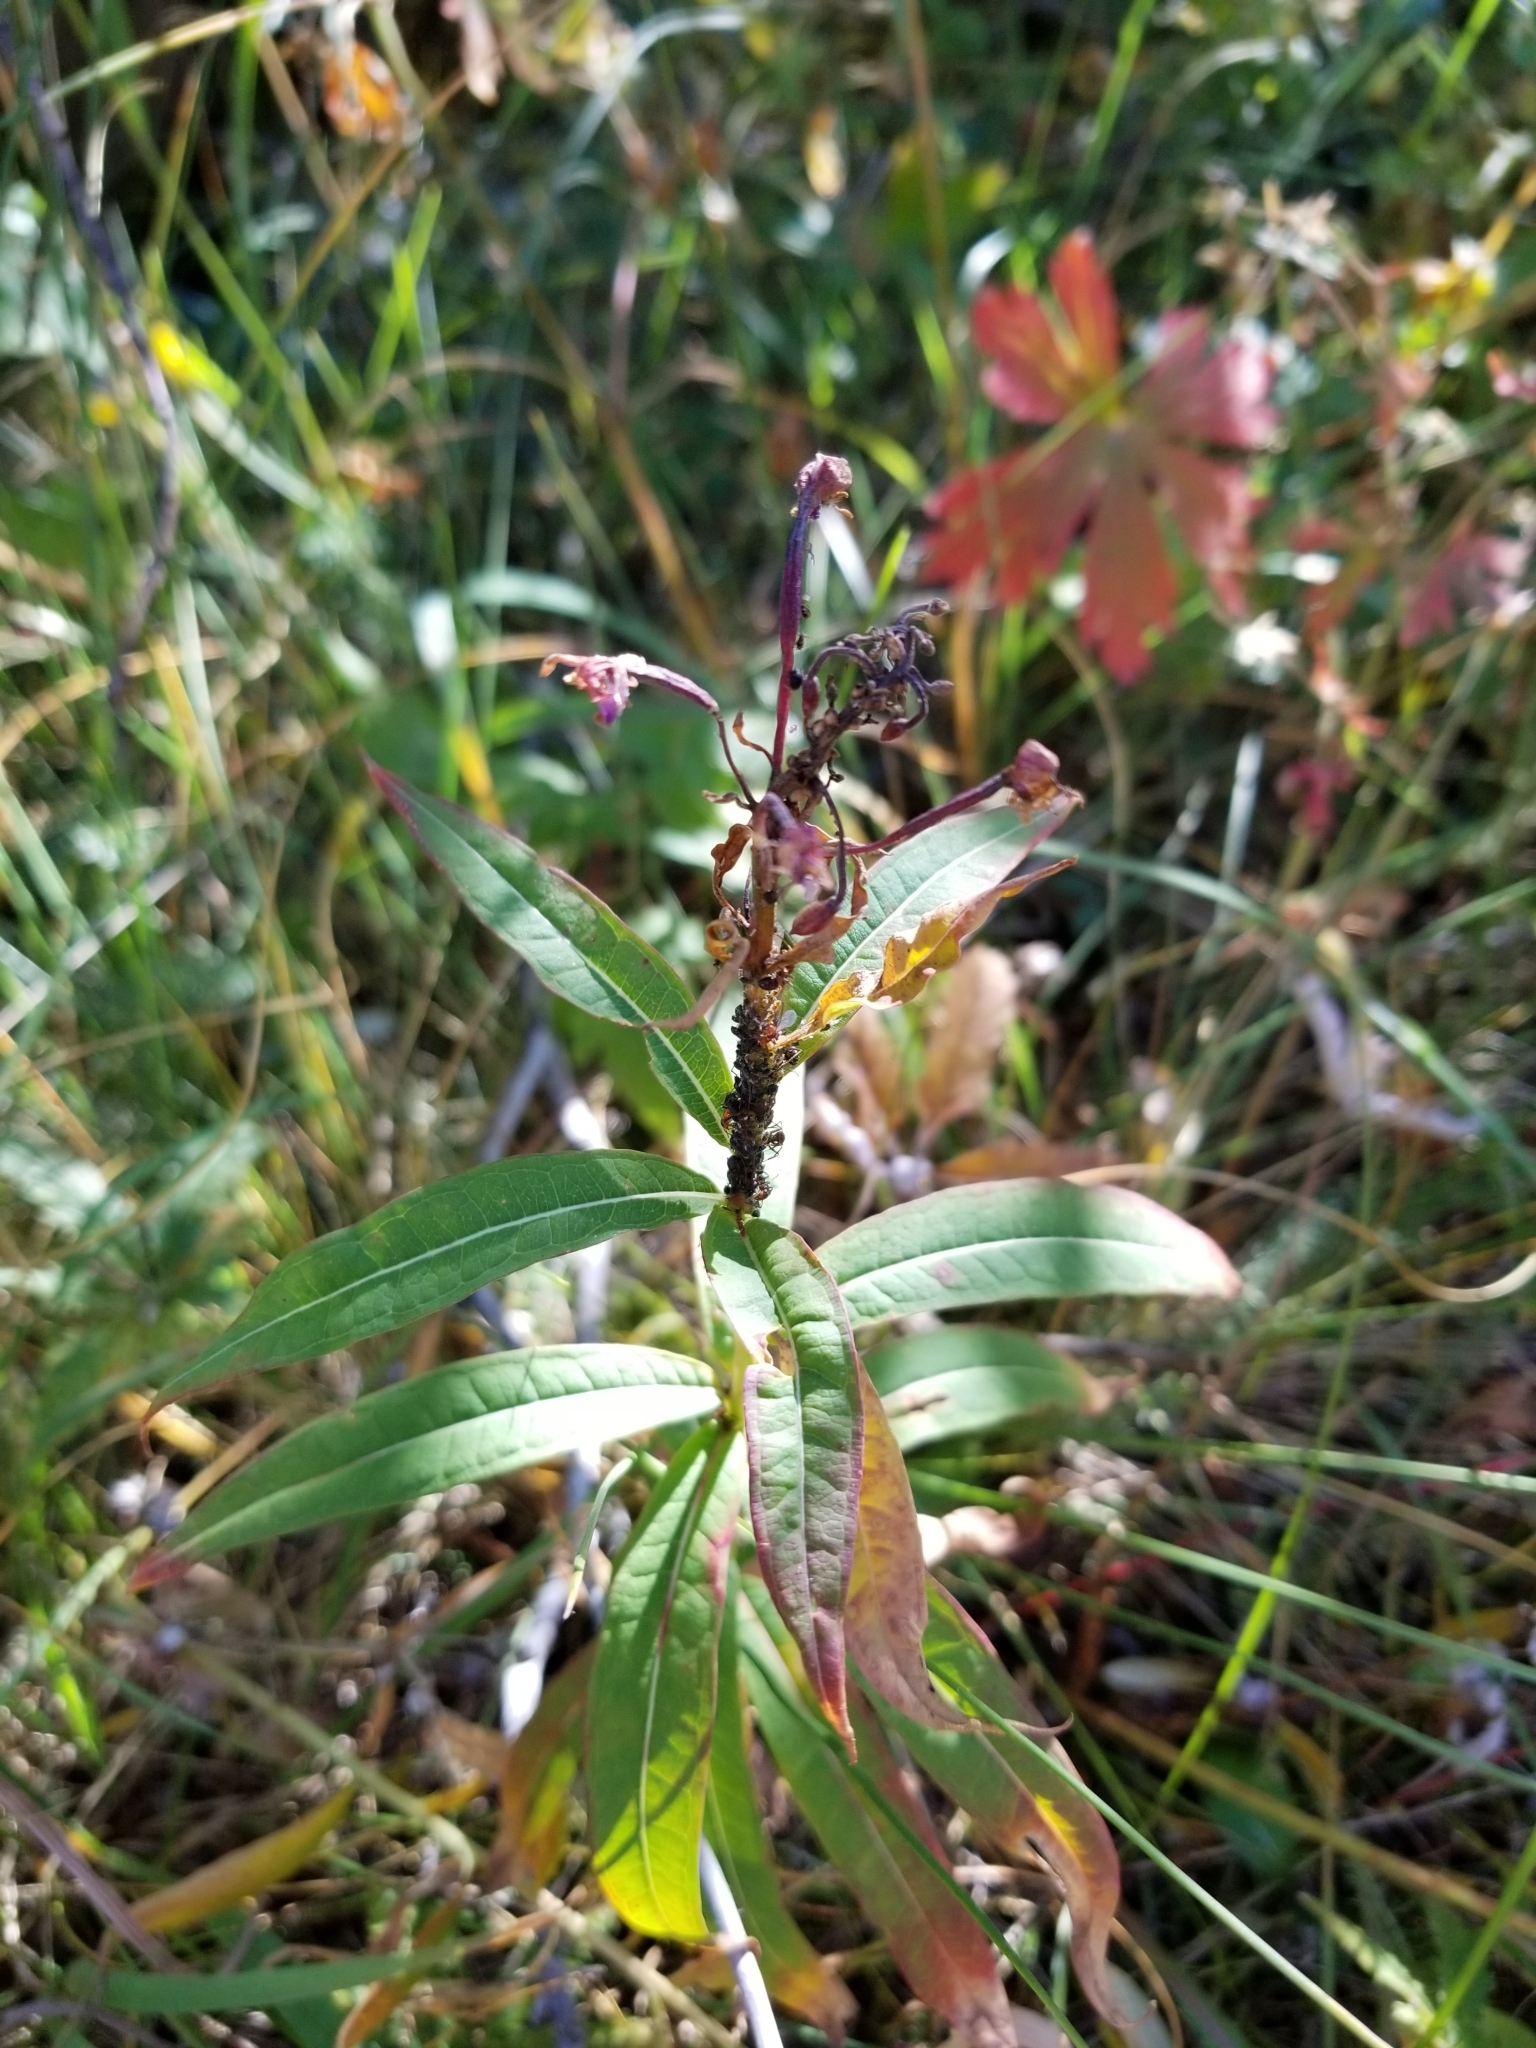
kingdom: Plantae
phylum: Tracheophyta
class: Magnoliopsida
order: Myrtales
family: Onagraceae
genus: Chamaenerion
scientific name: Chamaenerion angustifolium
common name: Fireweed
